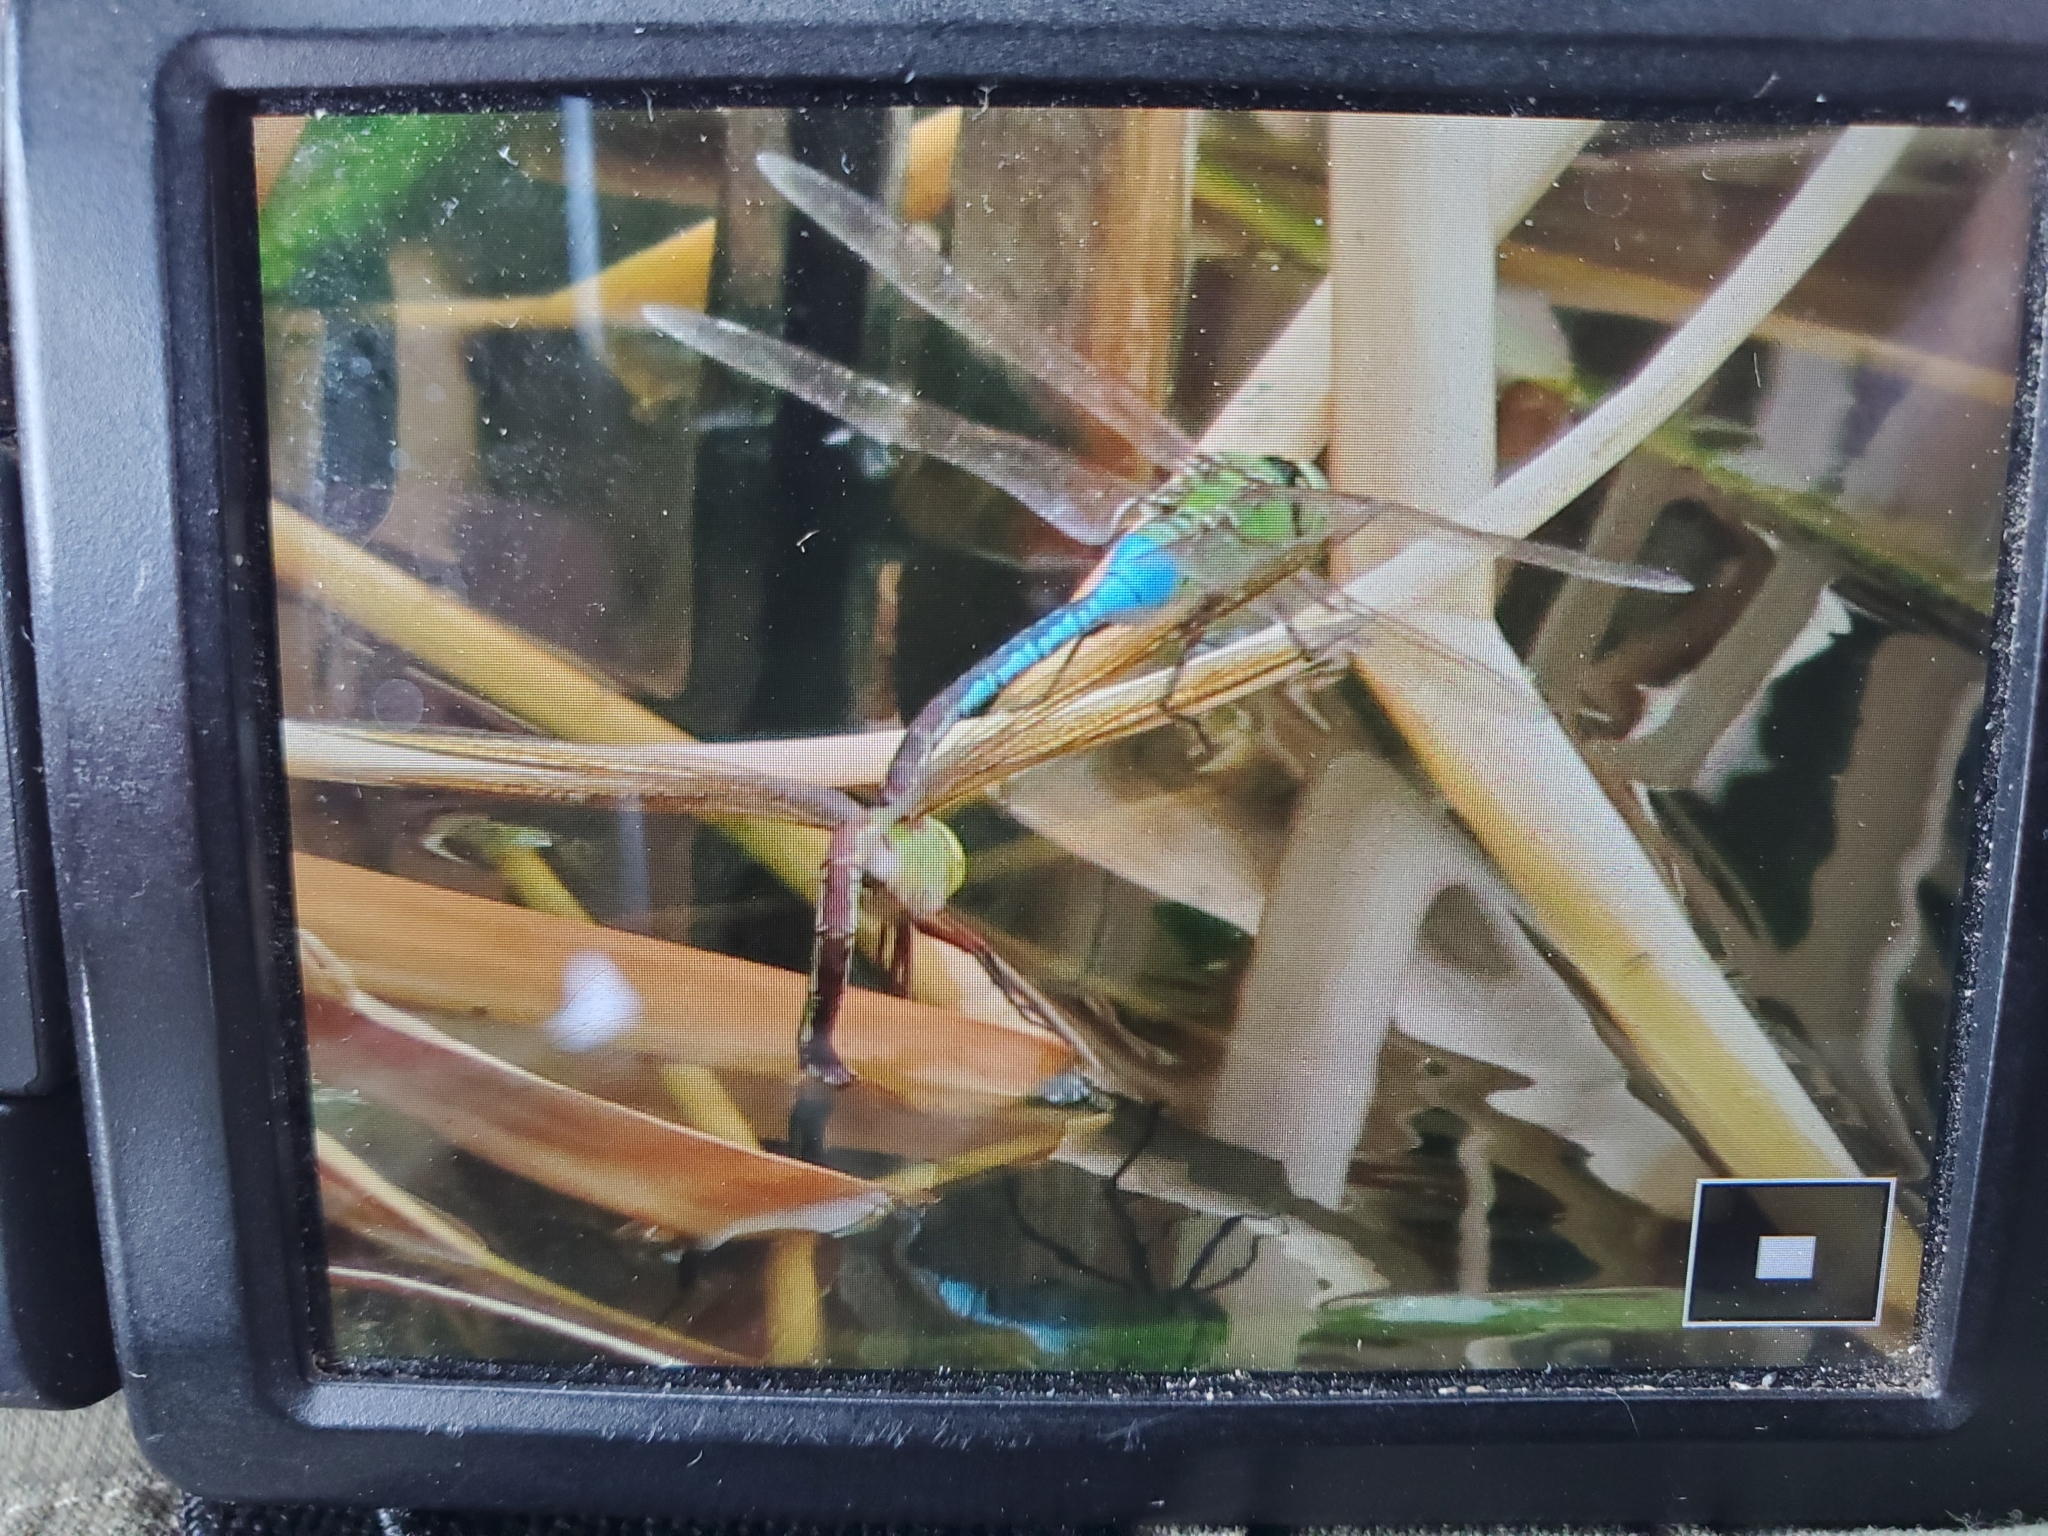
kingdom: Animalia
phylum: Arthropoda
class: Insecta
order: Odonata
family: Aeshnidae
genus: Anax
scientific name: Anax junius
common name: Common green darner
